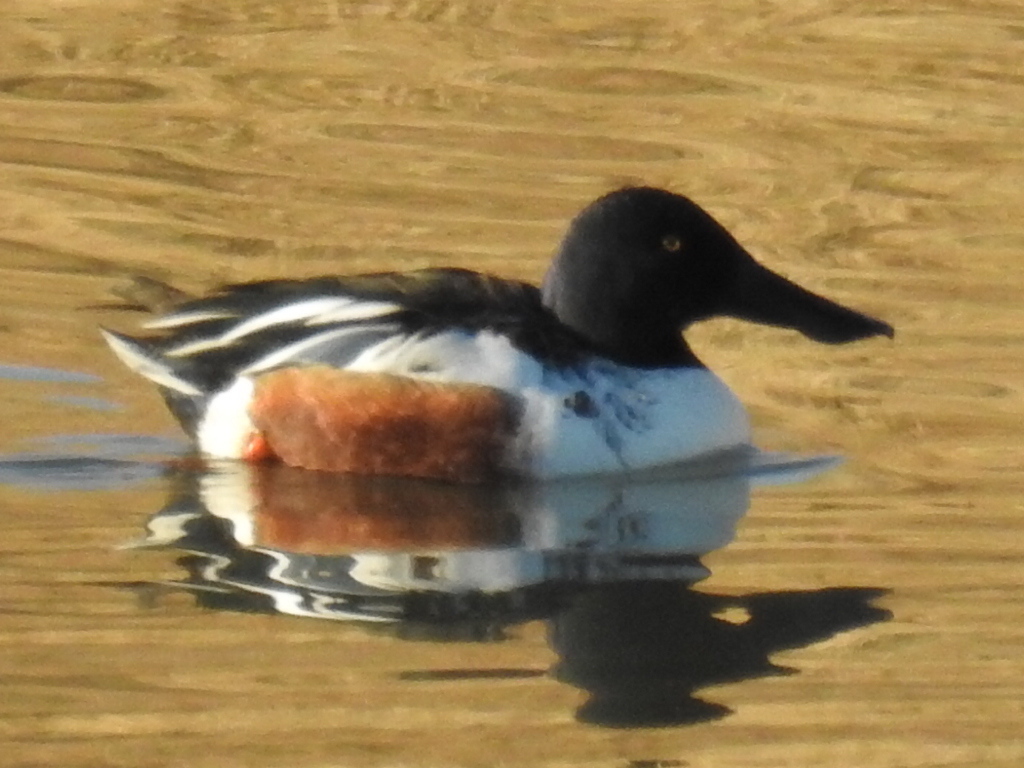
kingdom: Animalia
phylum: Chordata
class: Aves
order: Anseriformes
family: Anatidae
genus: Spatula
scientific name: Spatula clypeata
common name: Northern shoveler
